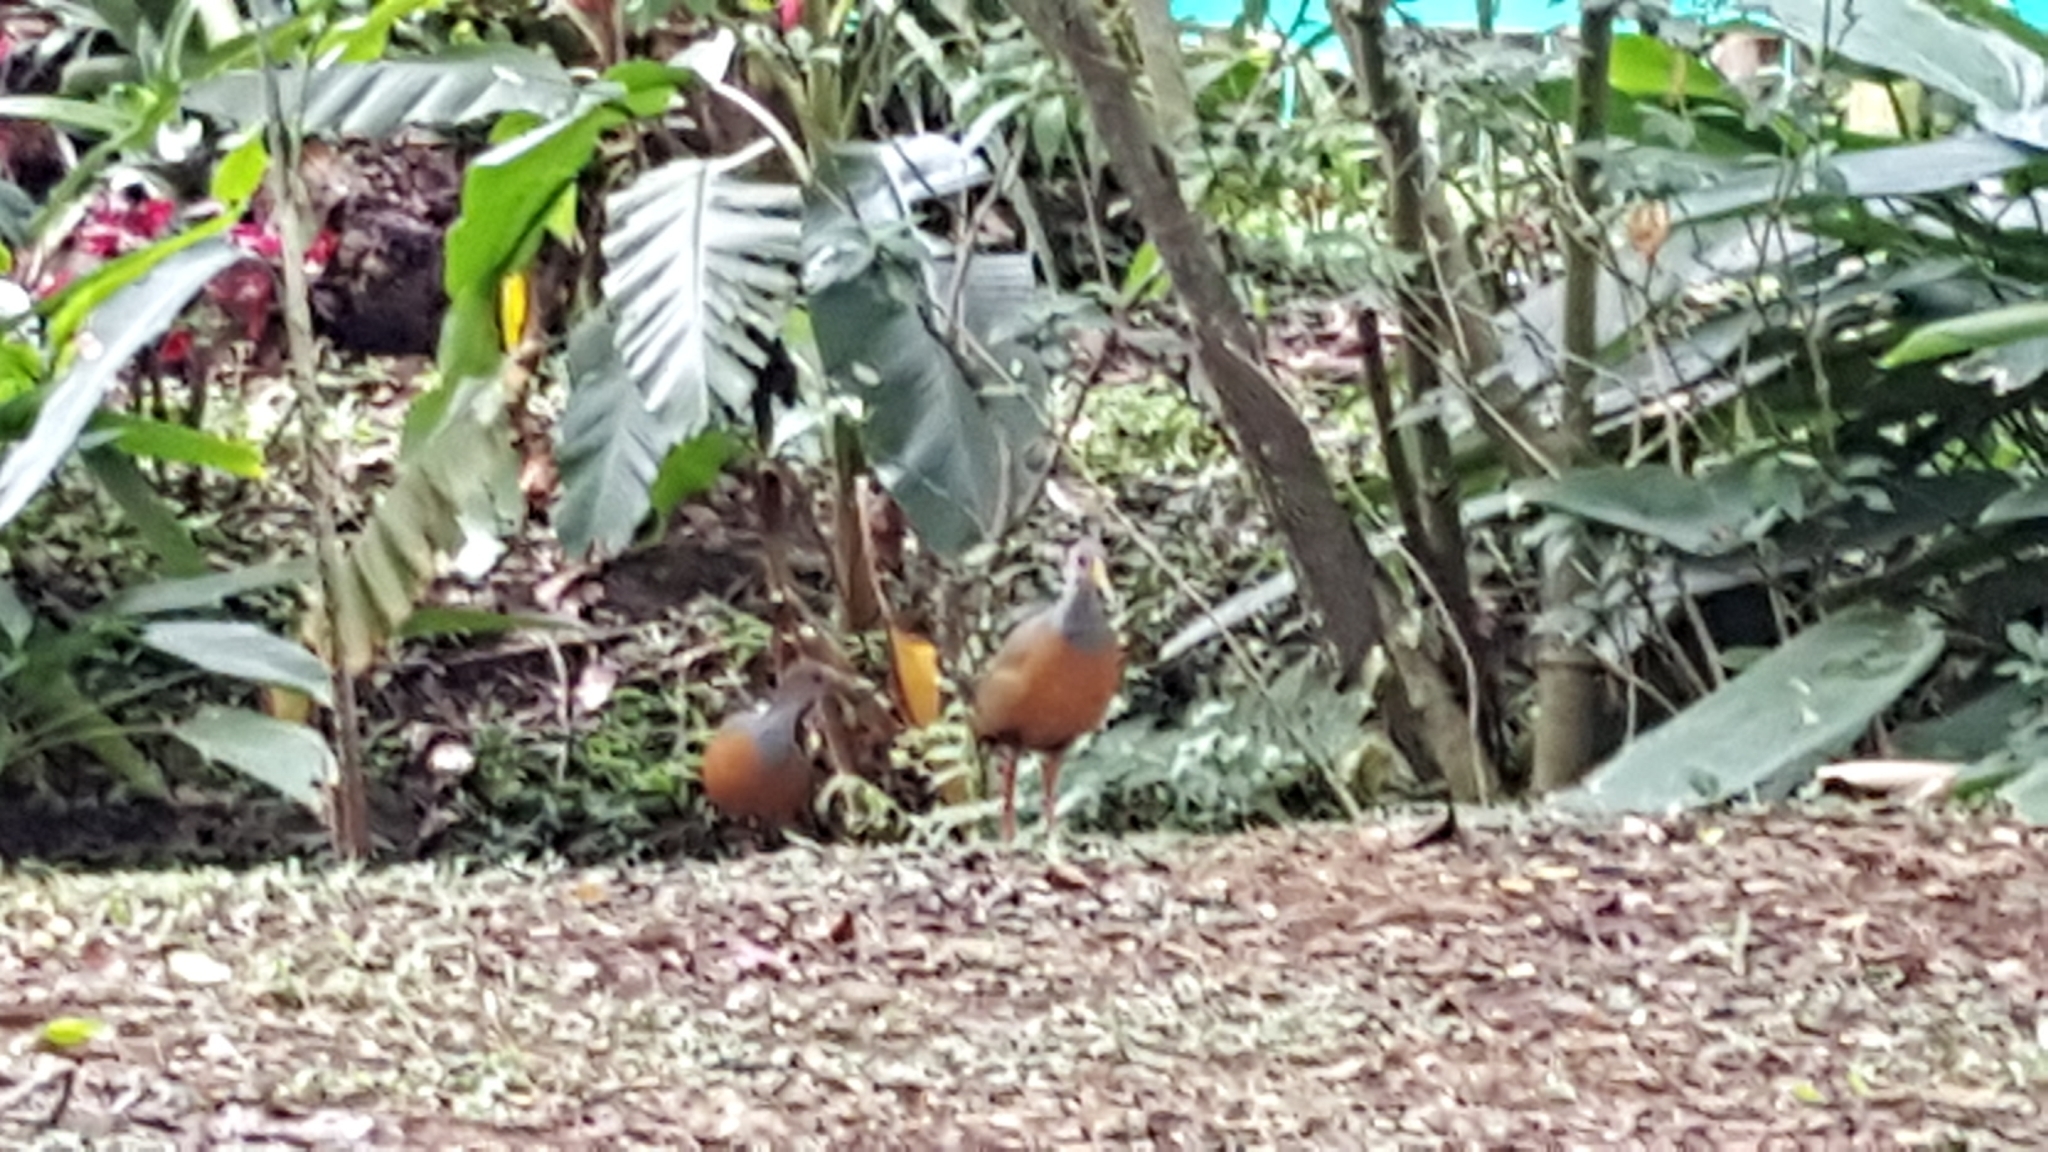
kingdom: Animalia
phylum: Chordata
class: Aves
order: Gruiformes
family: Rallidae
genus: Aramides
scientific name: Aramides cajanea
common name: Gray-necked wood-rail
